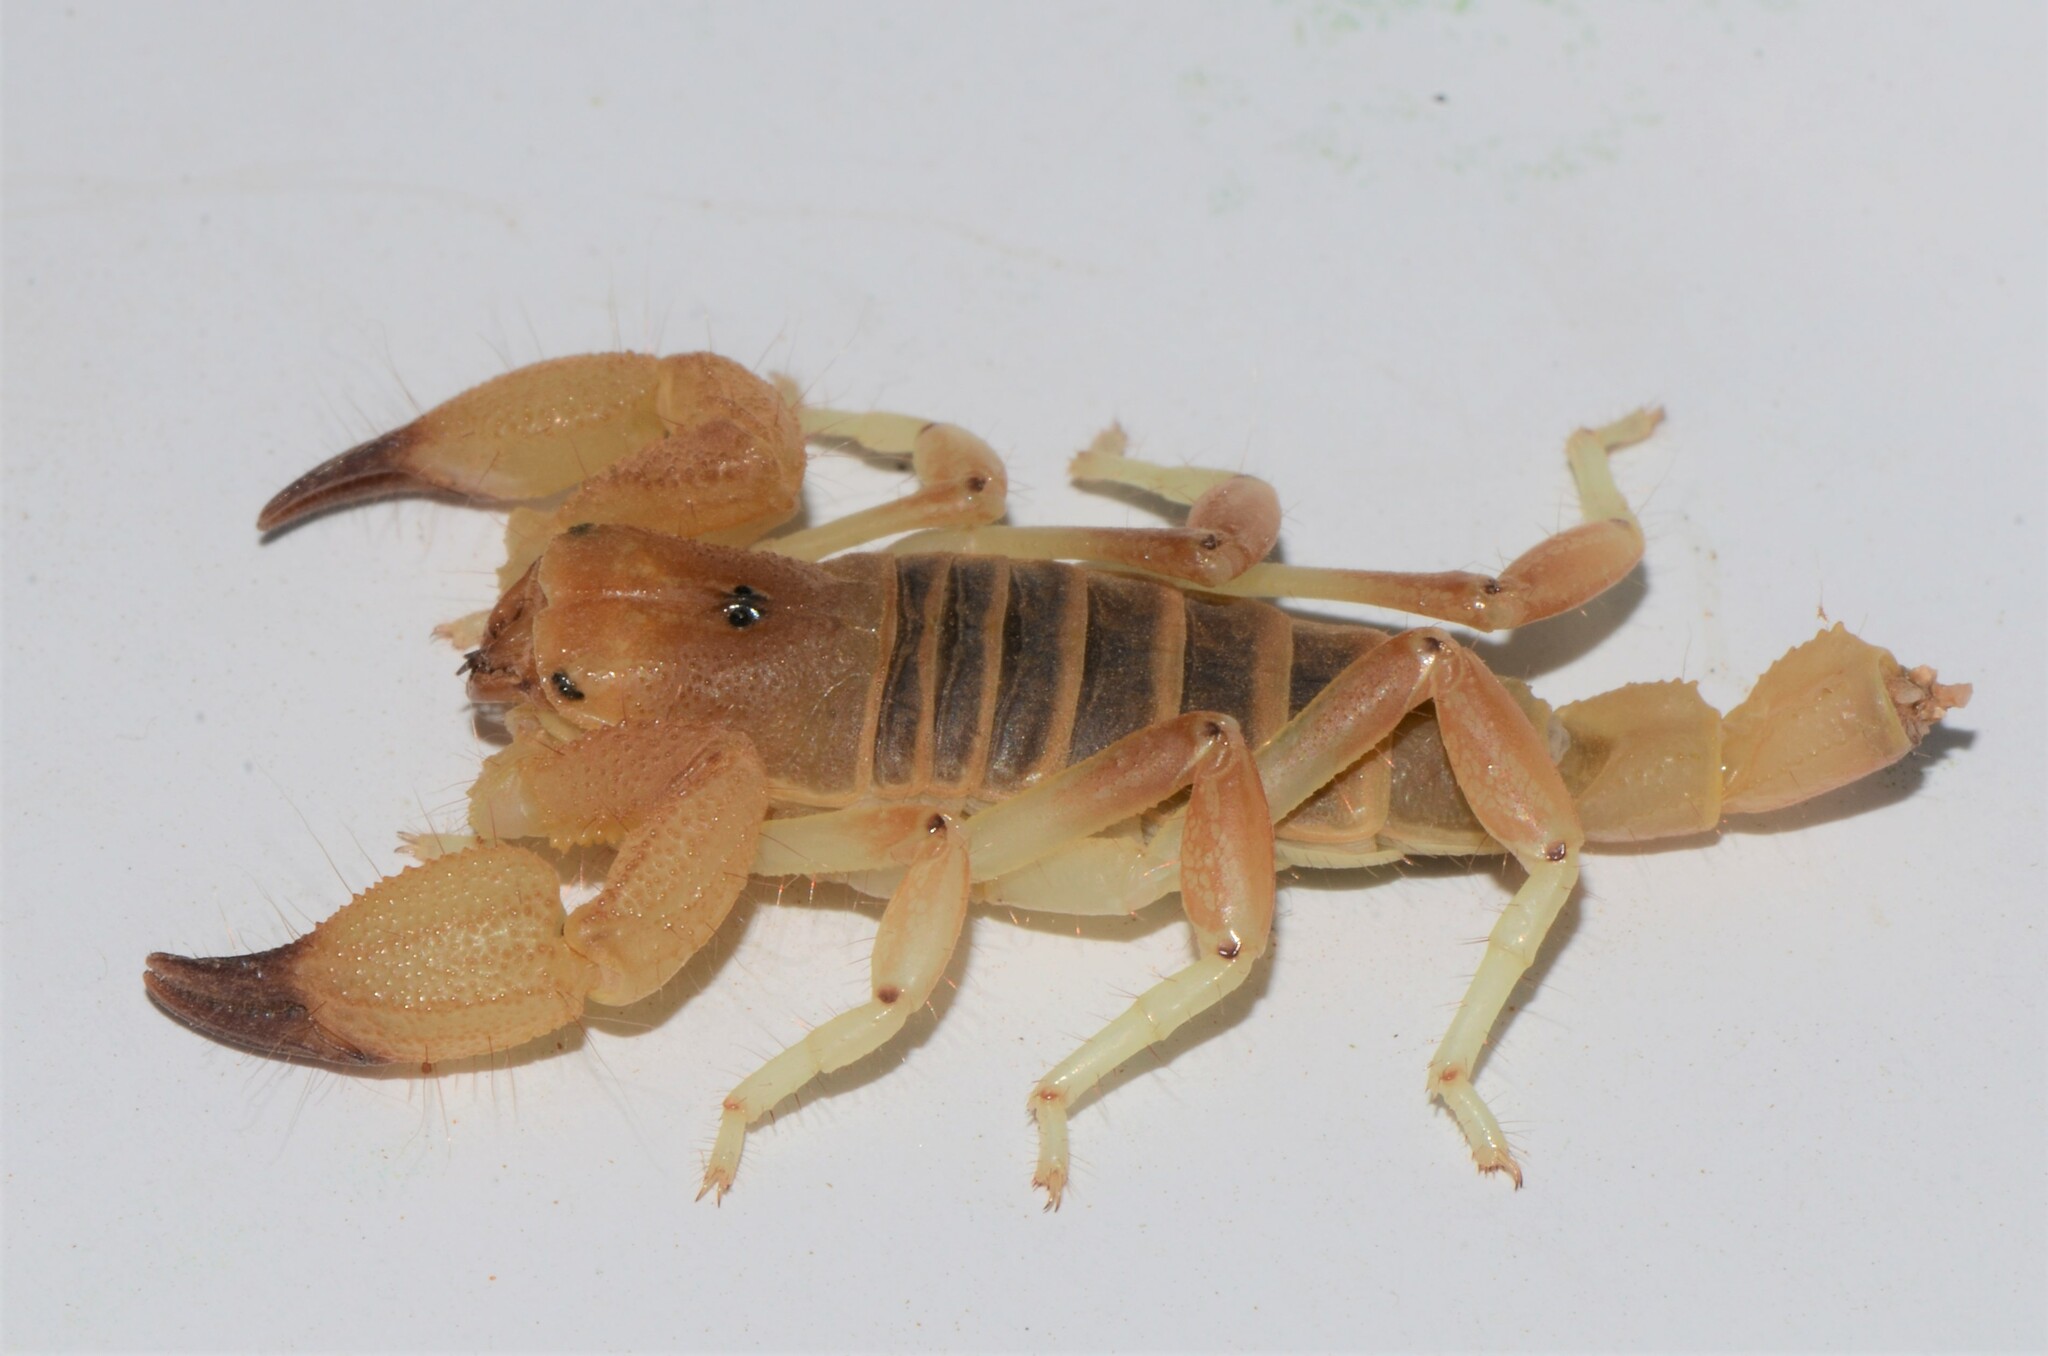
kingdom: Animalia
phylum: Arthropoda
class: Arachnida
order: Scorpiones
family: Scorpionidae
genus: Opistophthalmus
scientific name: Opistophthalmus lornae
